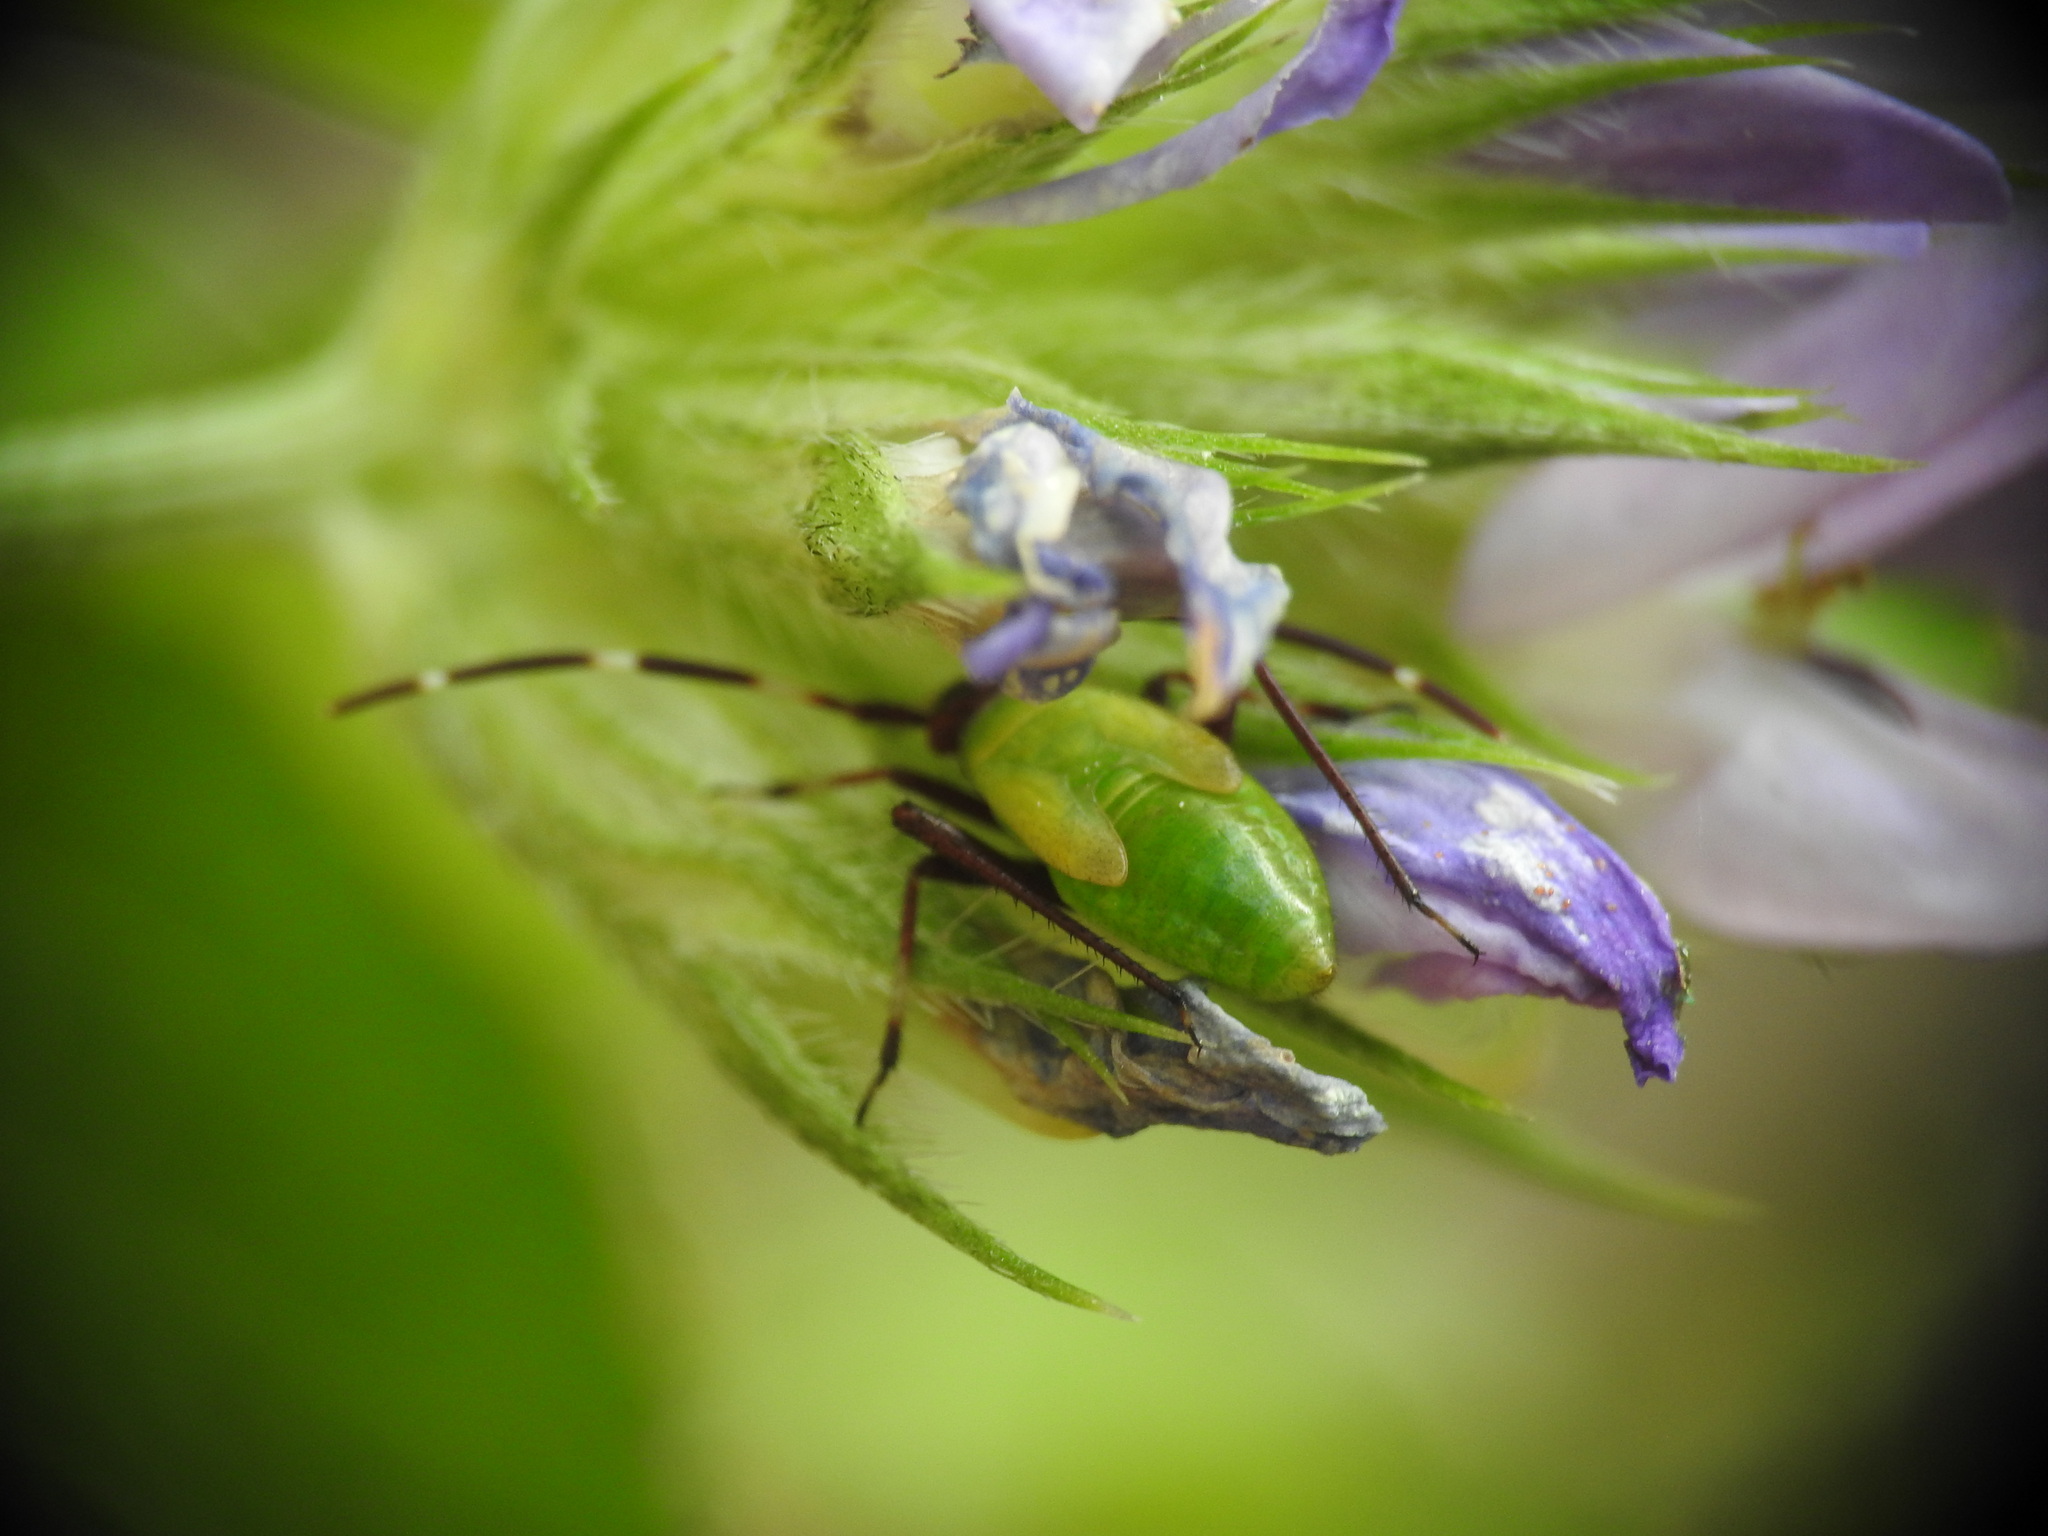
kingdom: Animalia
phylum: Arthropoda
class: Insecta
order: Hemiptera
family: Miridae
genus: Adelphocoris
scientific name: Adelphocoris vandalicus
